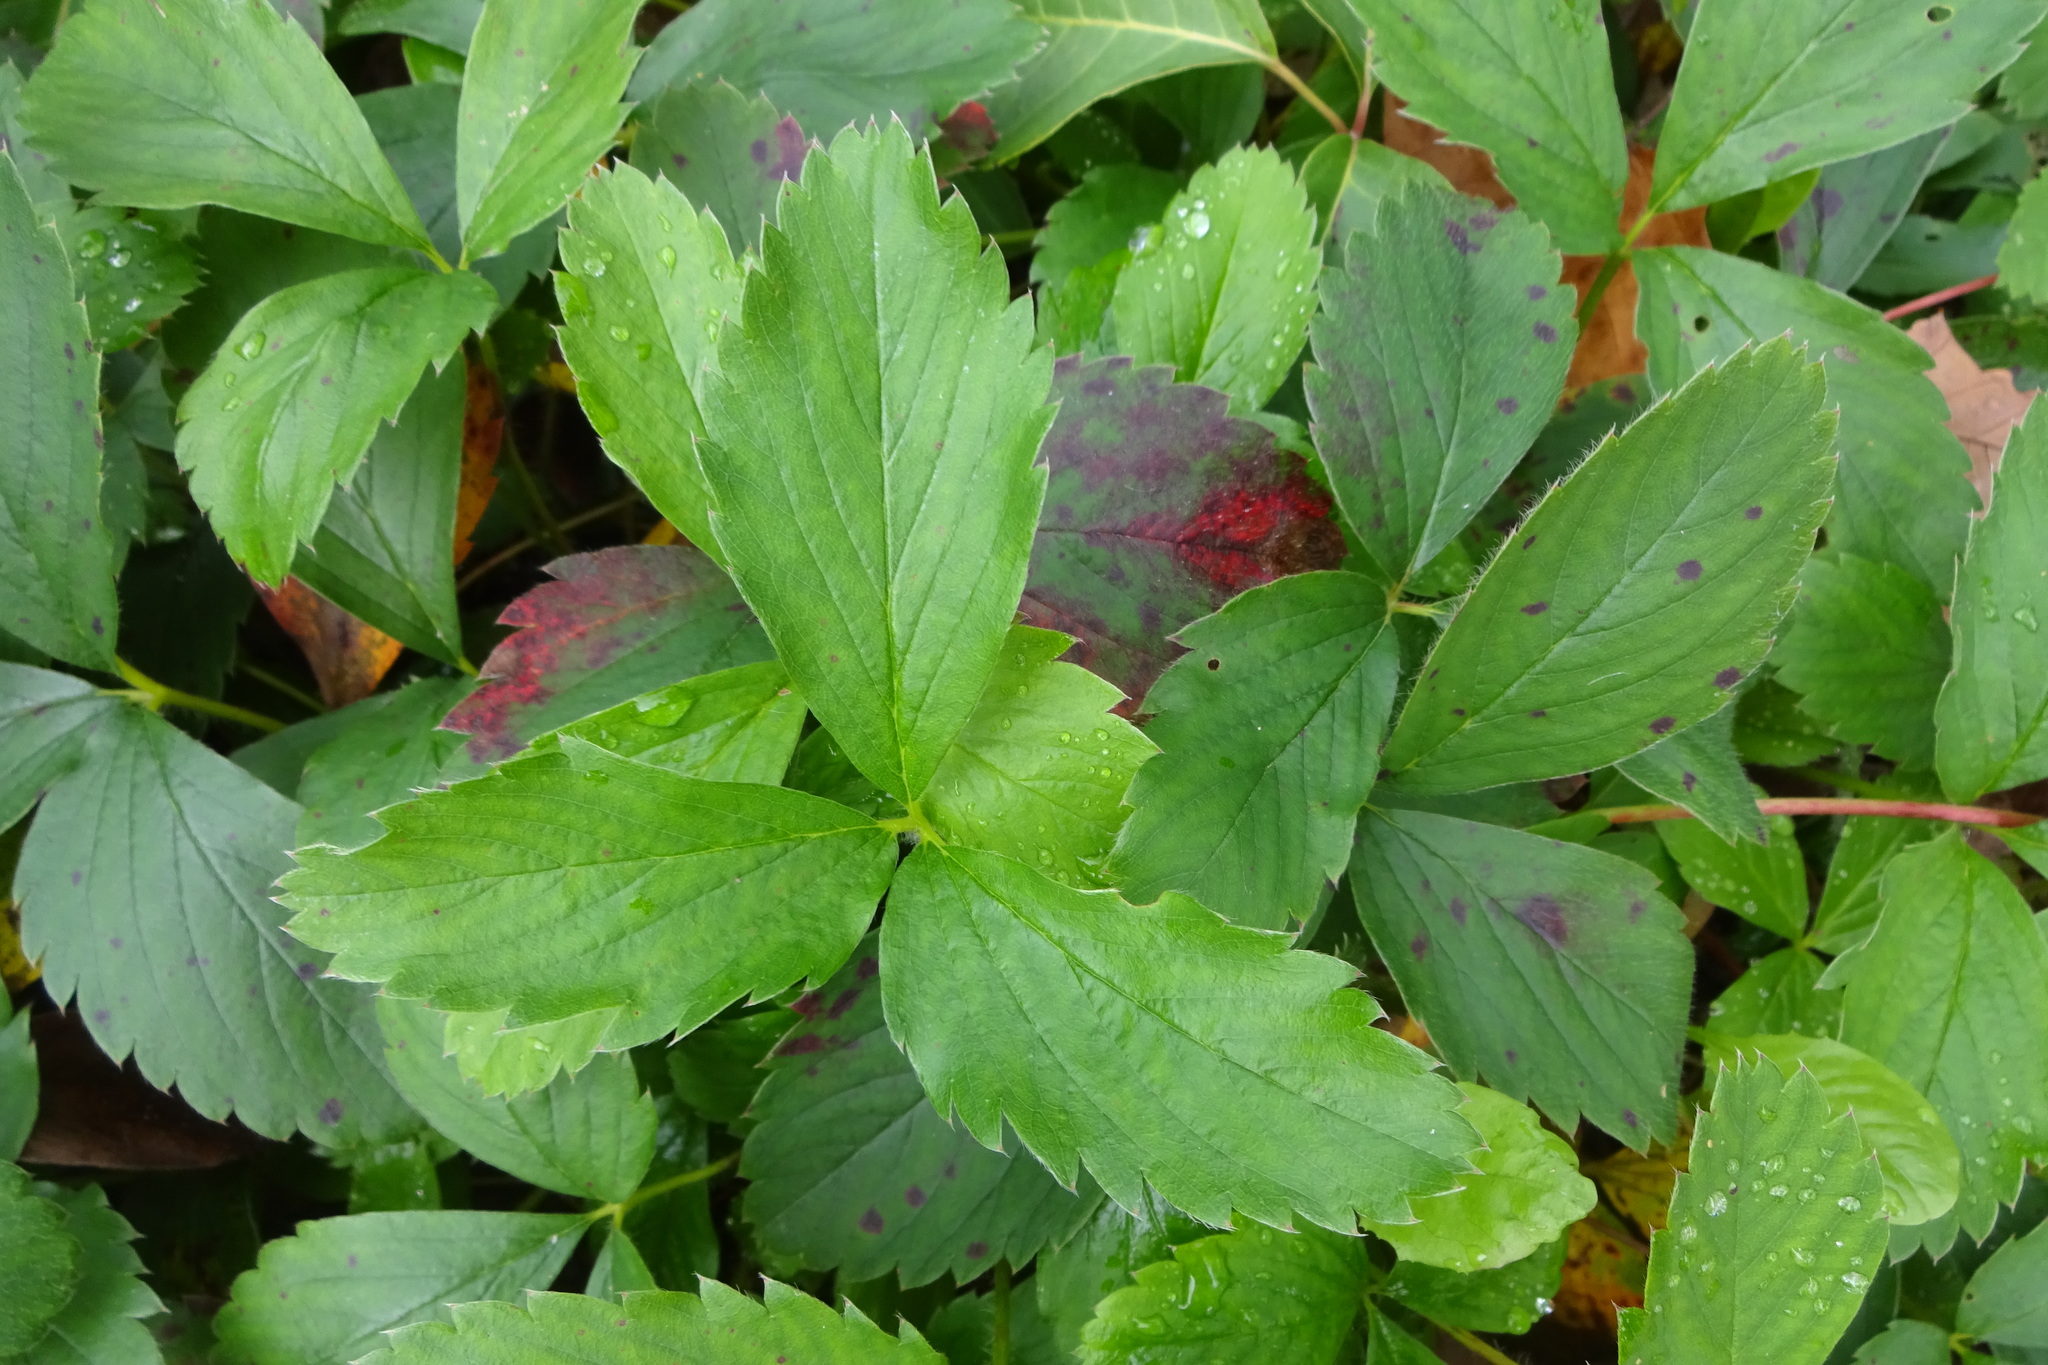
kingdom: Plantae
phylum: Tracheophyta
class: Magnoliopsida
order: Rosales
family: Rosaceae
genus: Fragaria
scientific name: Fragaria virginiana
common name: Thickleaved wild strawberry
